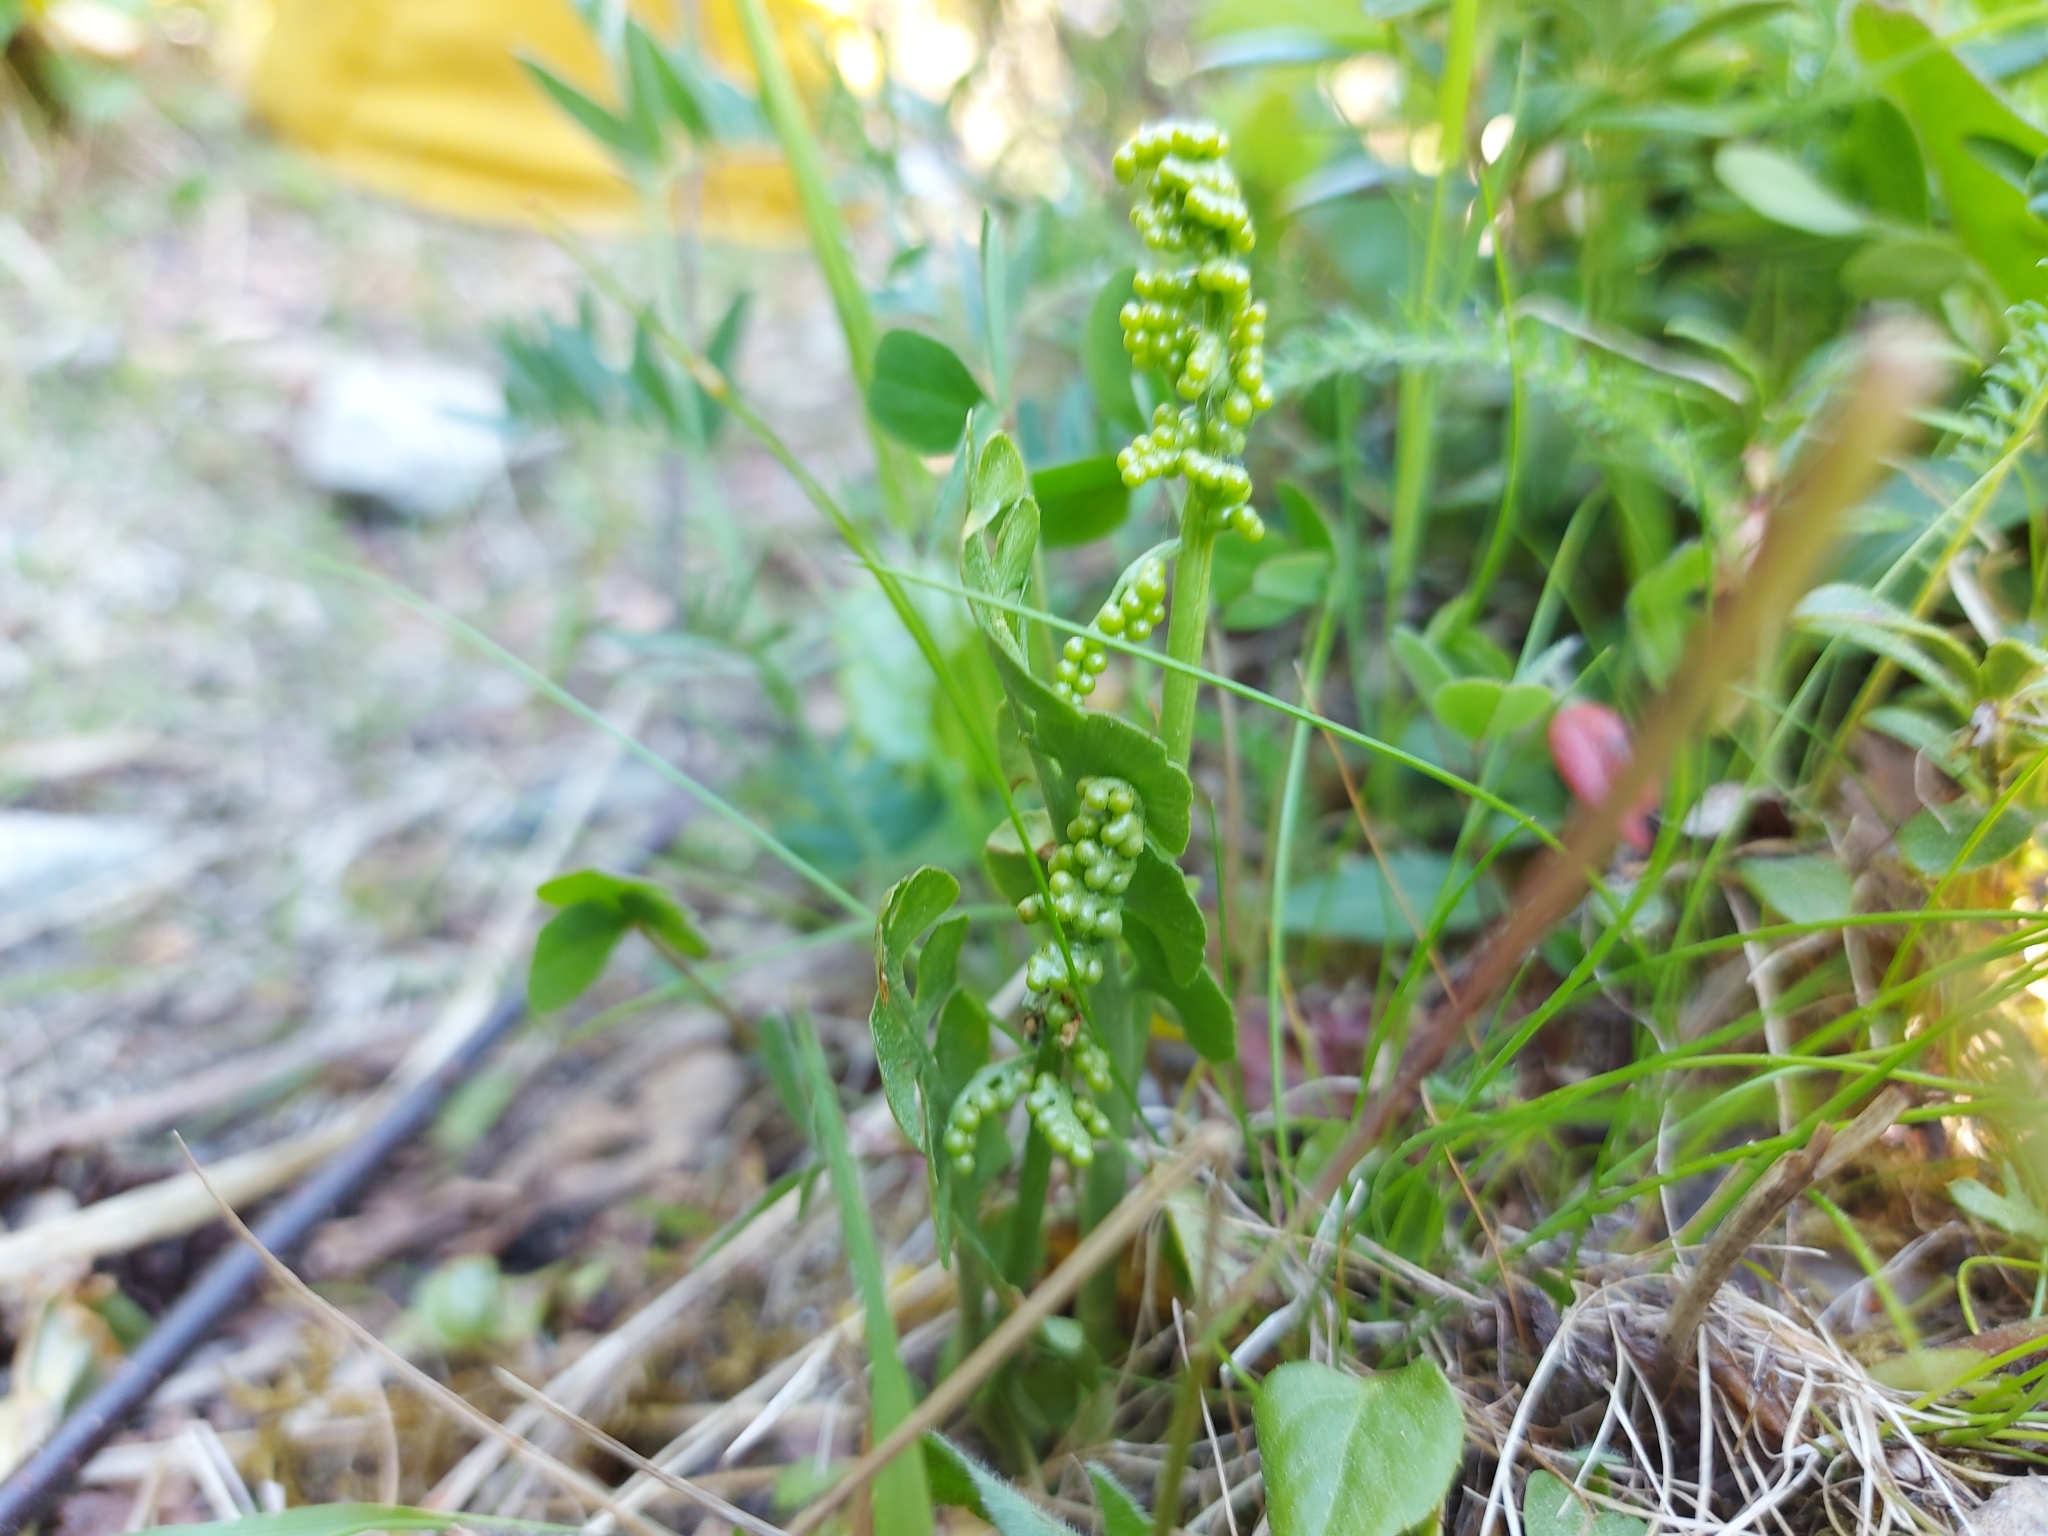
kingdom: Plantae
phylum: Tracheophyta
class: Polypodiopsida
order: Ophioglossales
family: Ophioglossaceae
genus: Botrychium
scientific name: Botrychium lunaria
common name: Moonwort
